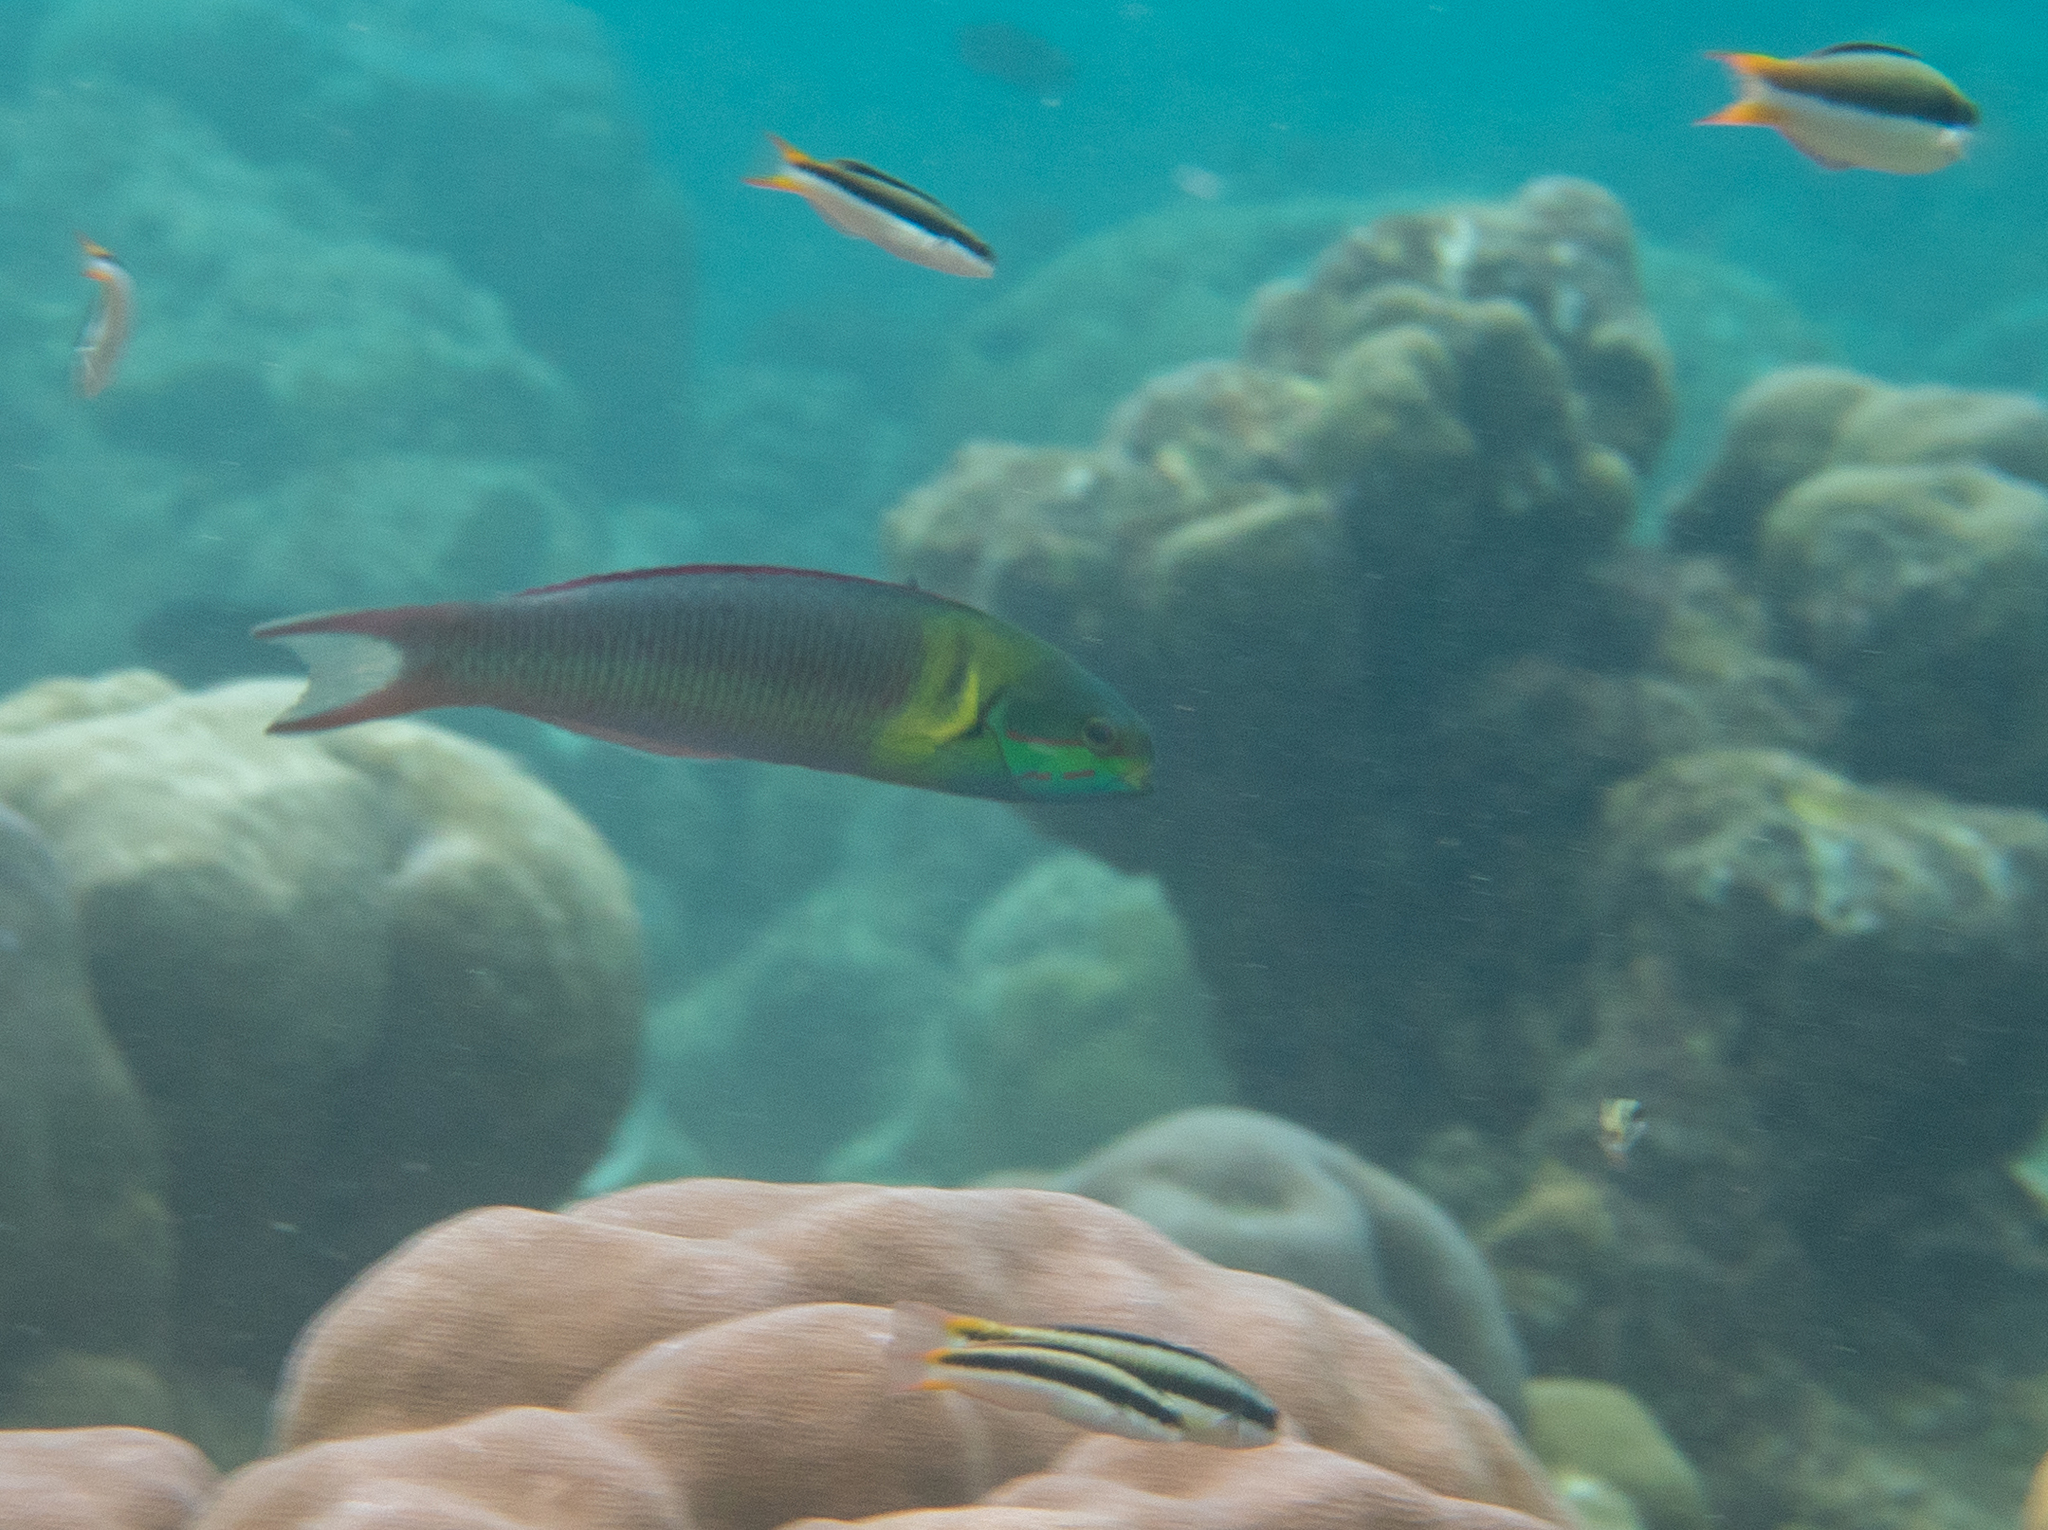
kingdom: Animalia
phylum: Chordata
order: Perciformes
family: Labridae
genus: Thalassoma
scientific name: Thalassoma amblycephalum
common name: Bluehead wrasse
